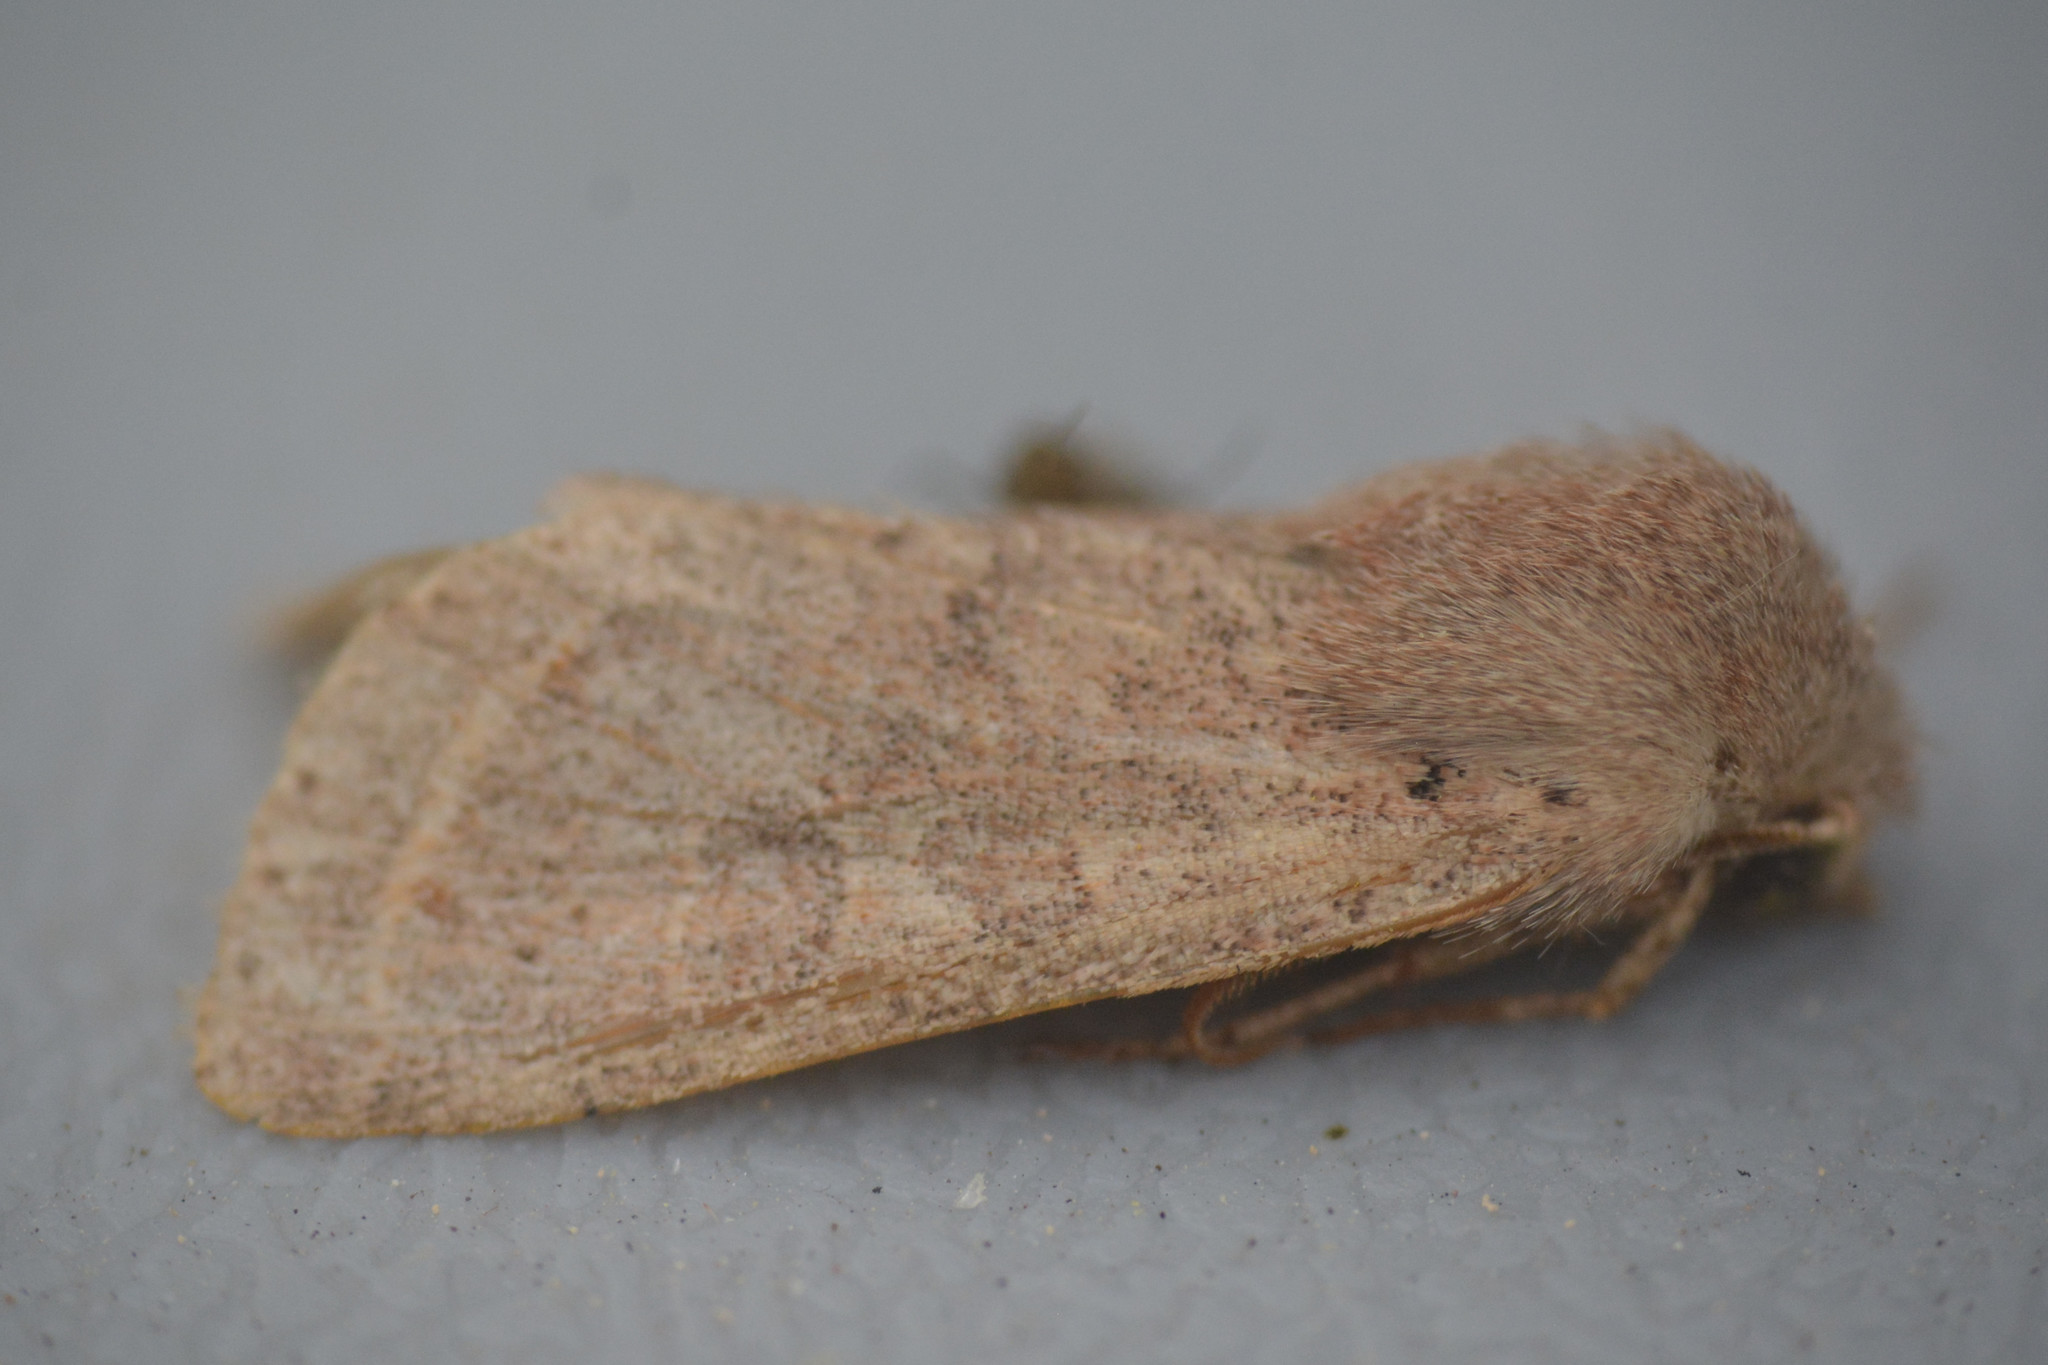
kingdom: Animalia
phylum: Arthropoda
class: Insecta
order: Lepidoptera
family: Noctuidae
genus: Orthosia
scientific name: Orthosia cerasi
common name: Common quaker
